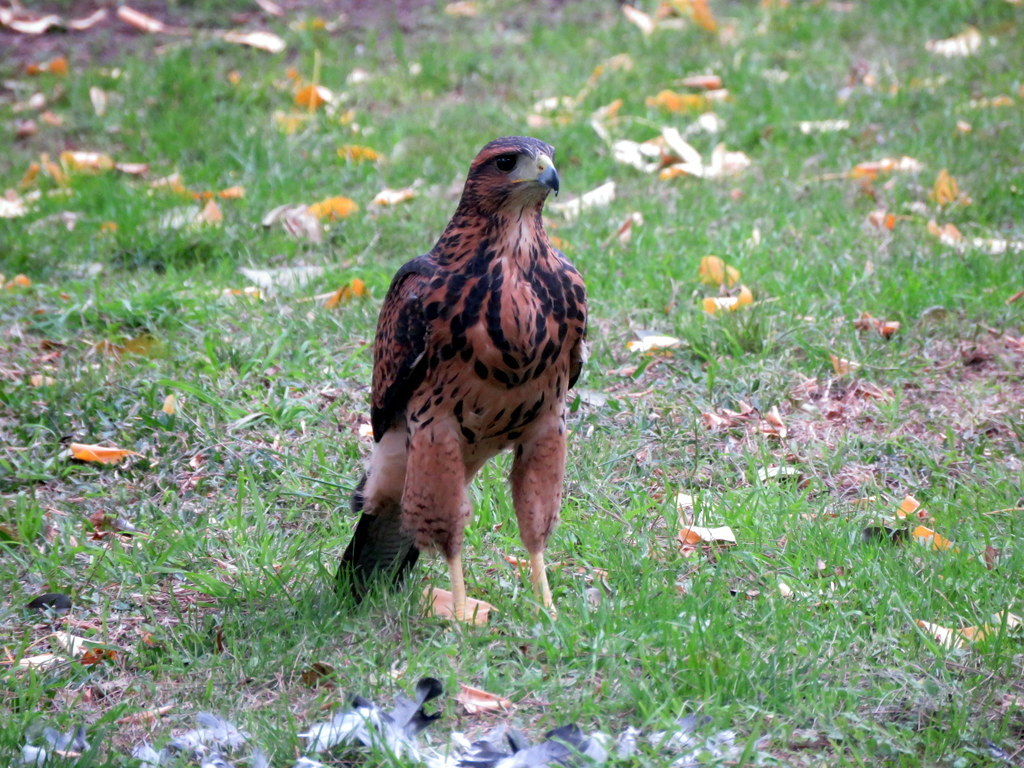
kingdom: Animalia
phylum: Chordata
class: Aves
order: Accipitriformes
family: Accipitridae
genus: Parabuteo
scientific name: Parabuteo unicinctus
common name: Harris's hawk
